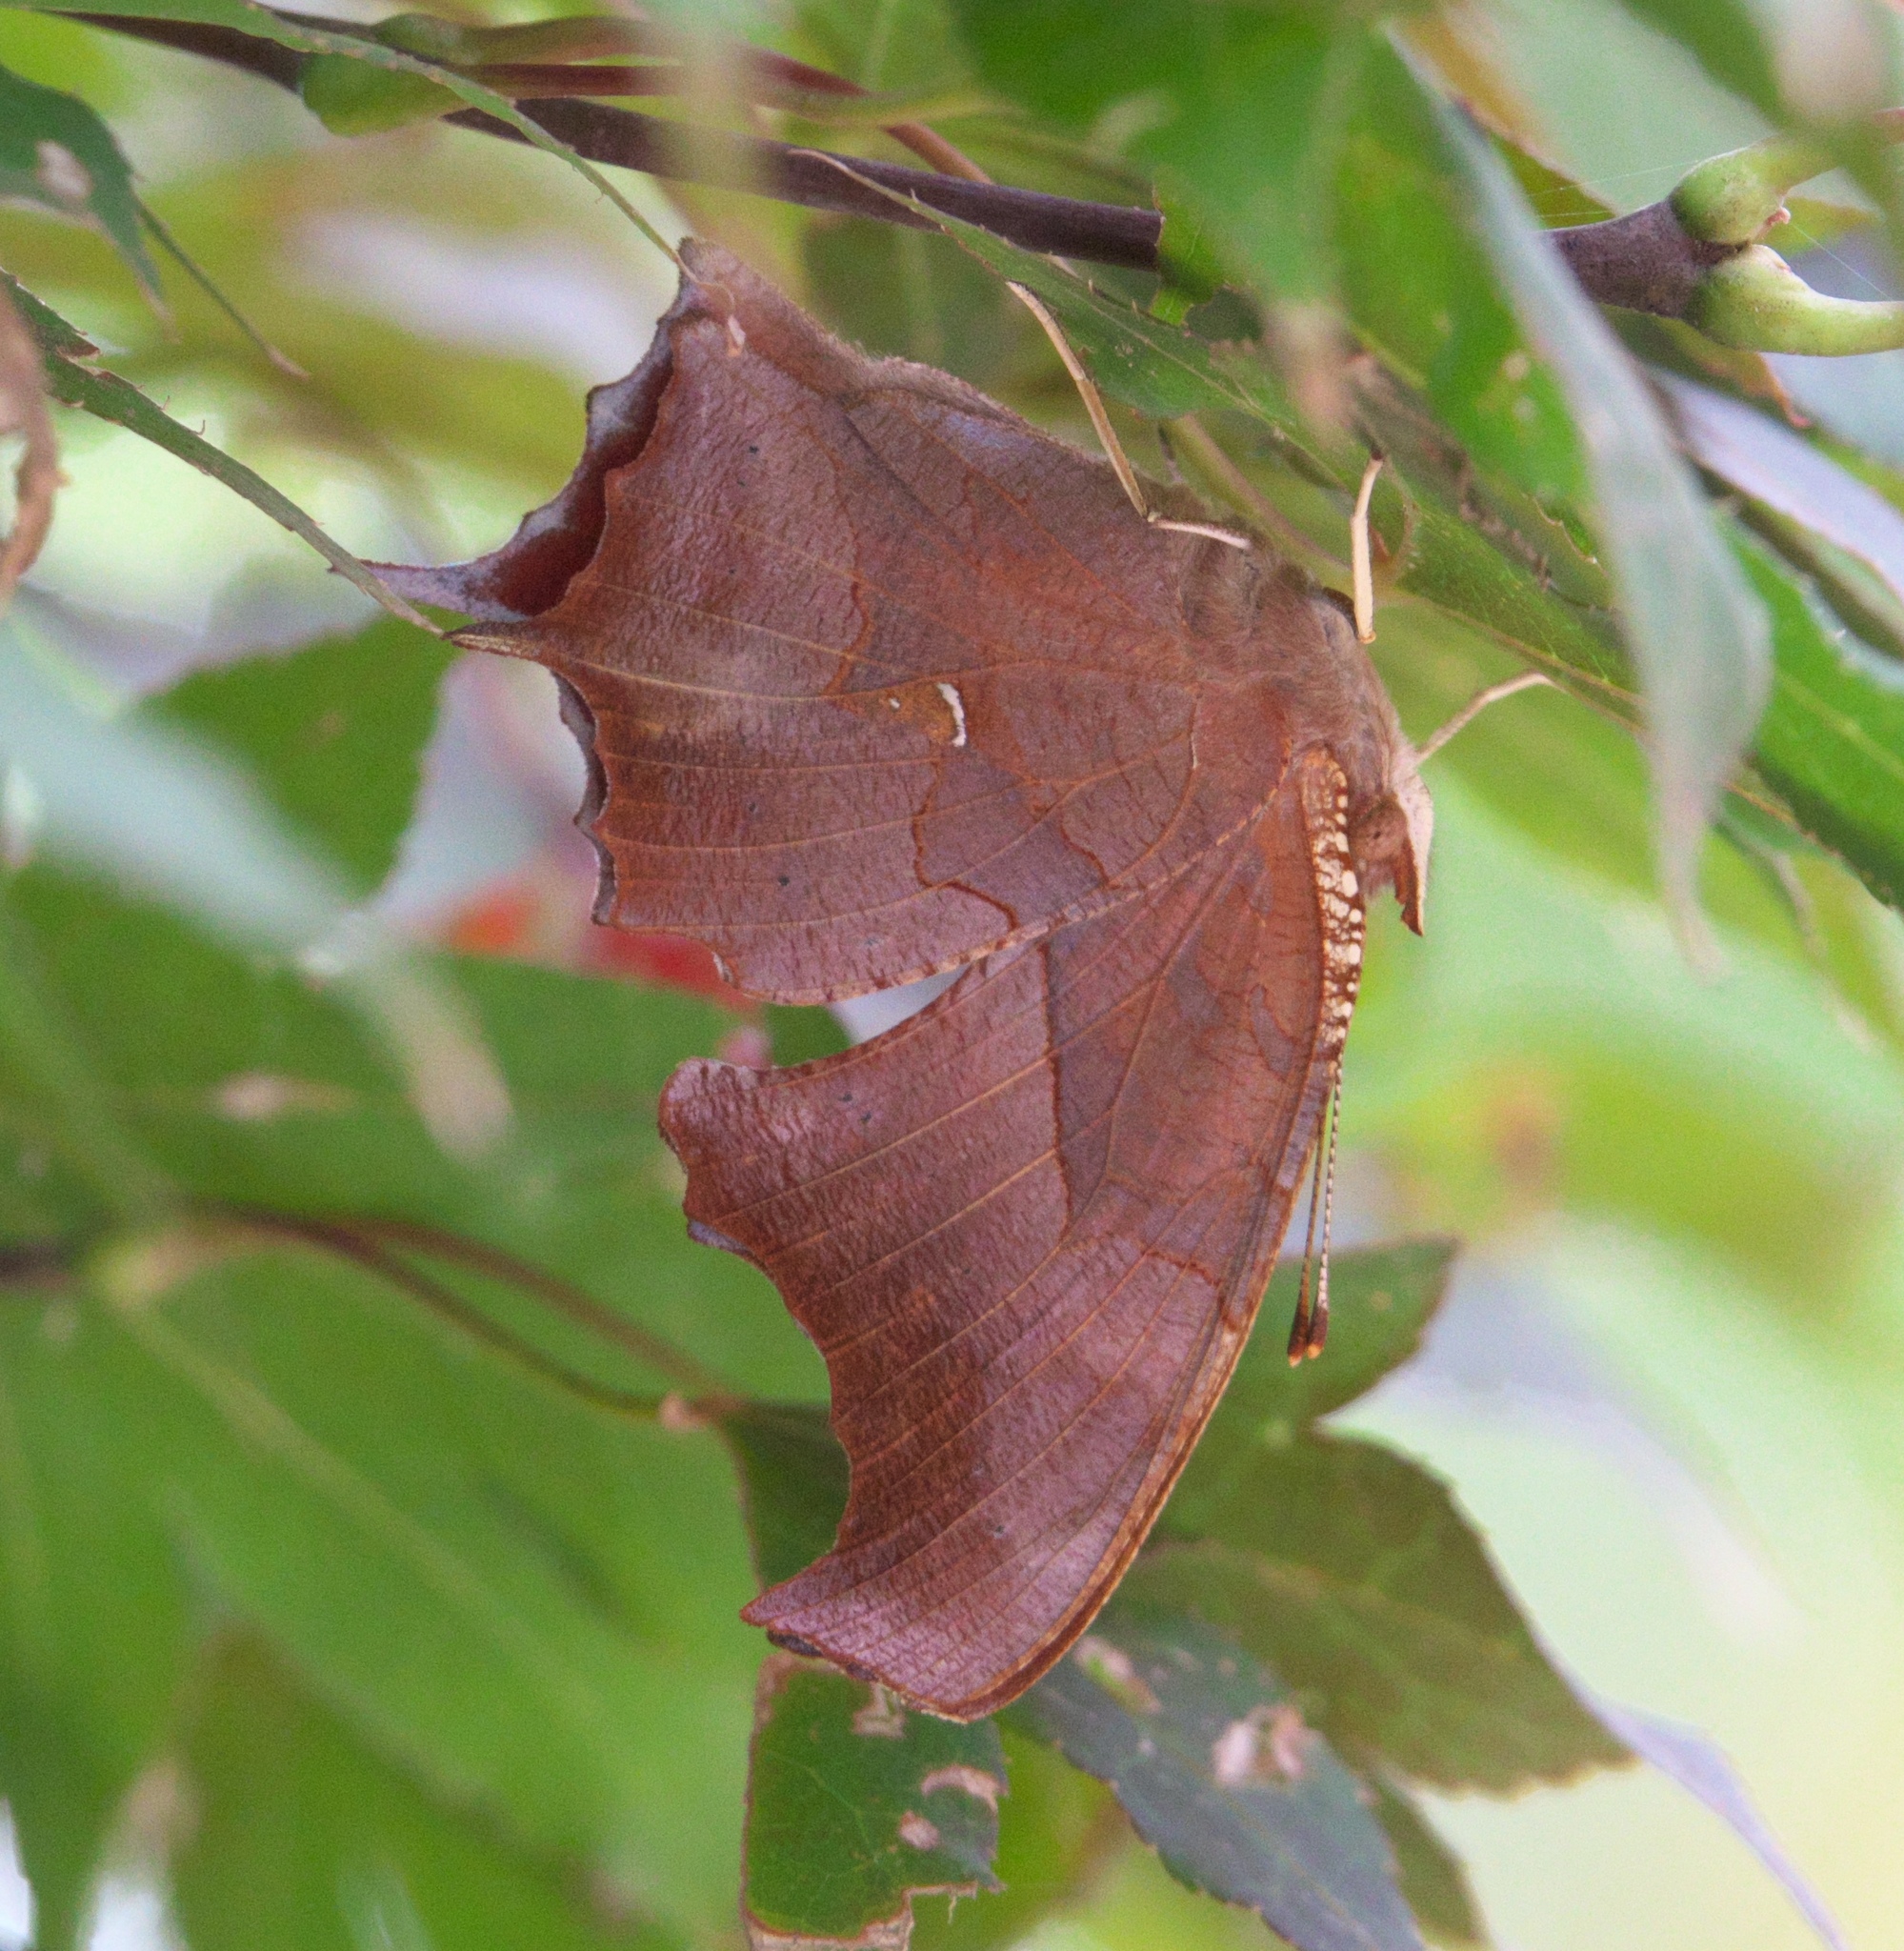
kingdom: Animalia
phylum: Arthropoda
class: Insecta
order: Lepidoptera
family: Nymphalidae
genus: Polygonia
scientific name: Polygonia interrogationis
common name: Question mark
